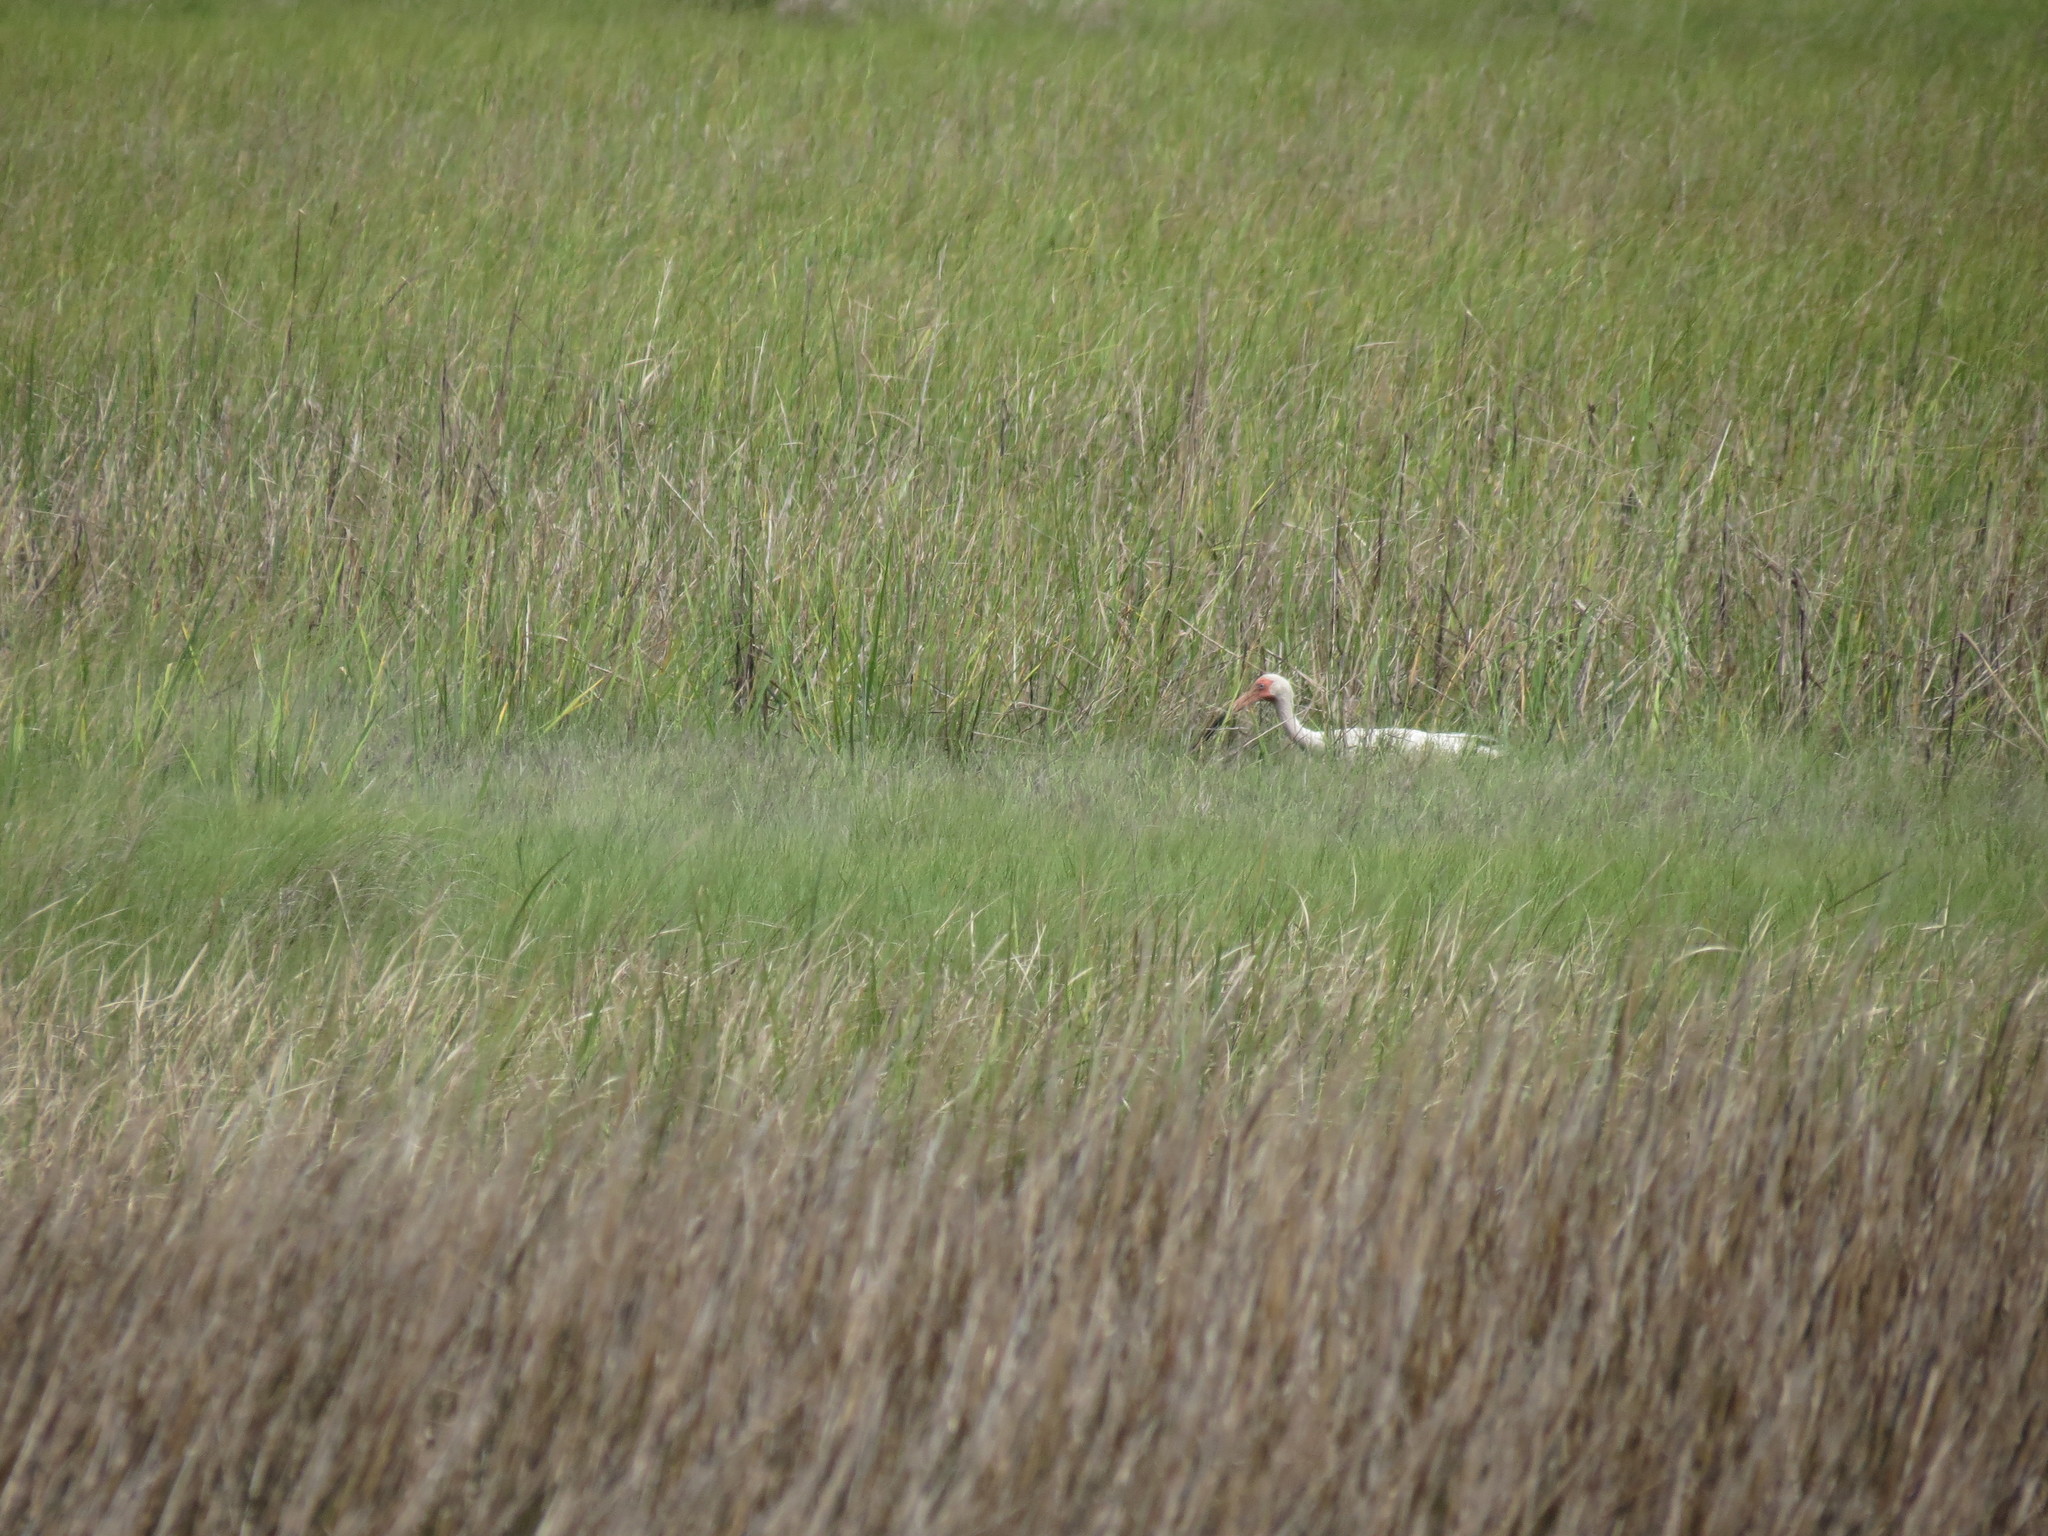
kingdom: Animalia
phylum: Chordata
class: Aves
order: Pelecaniformes
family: Threskiornithidae
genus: Eudocimus
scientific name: Eudocimus albus
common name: White ibis
